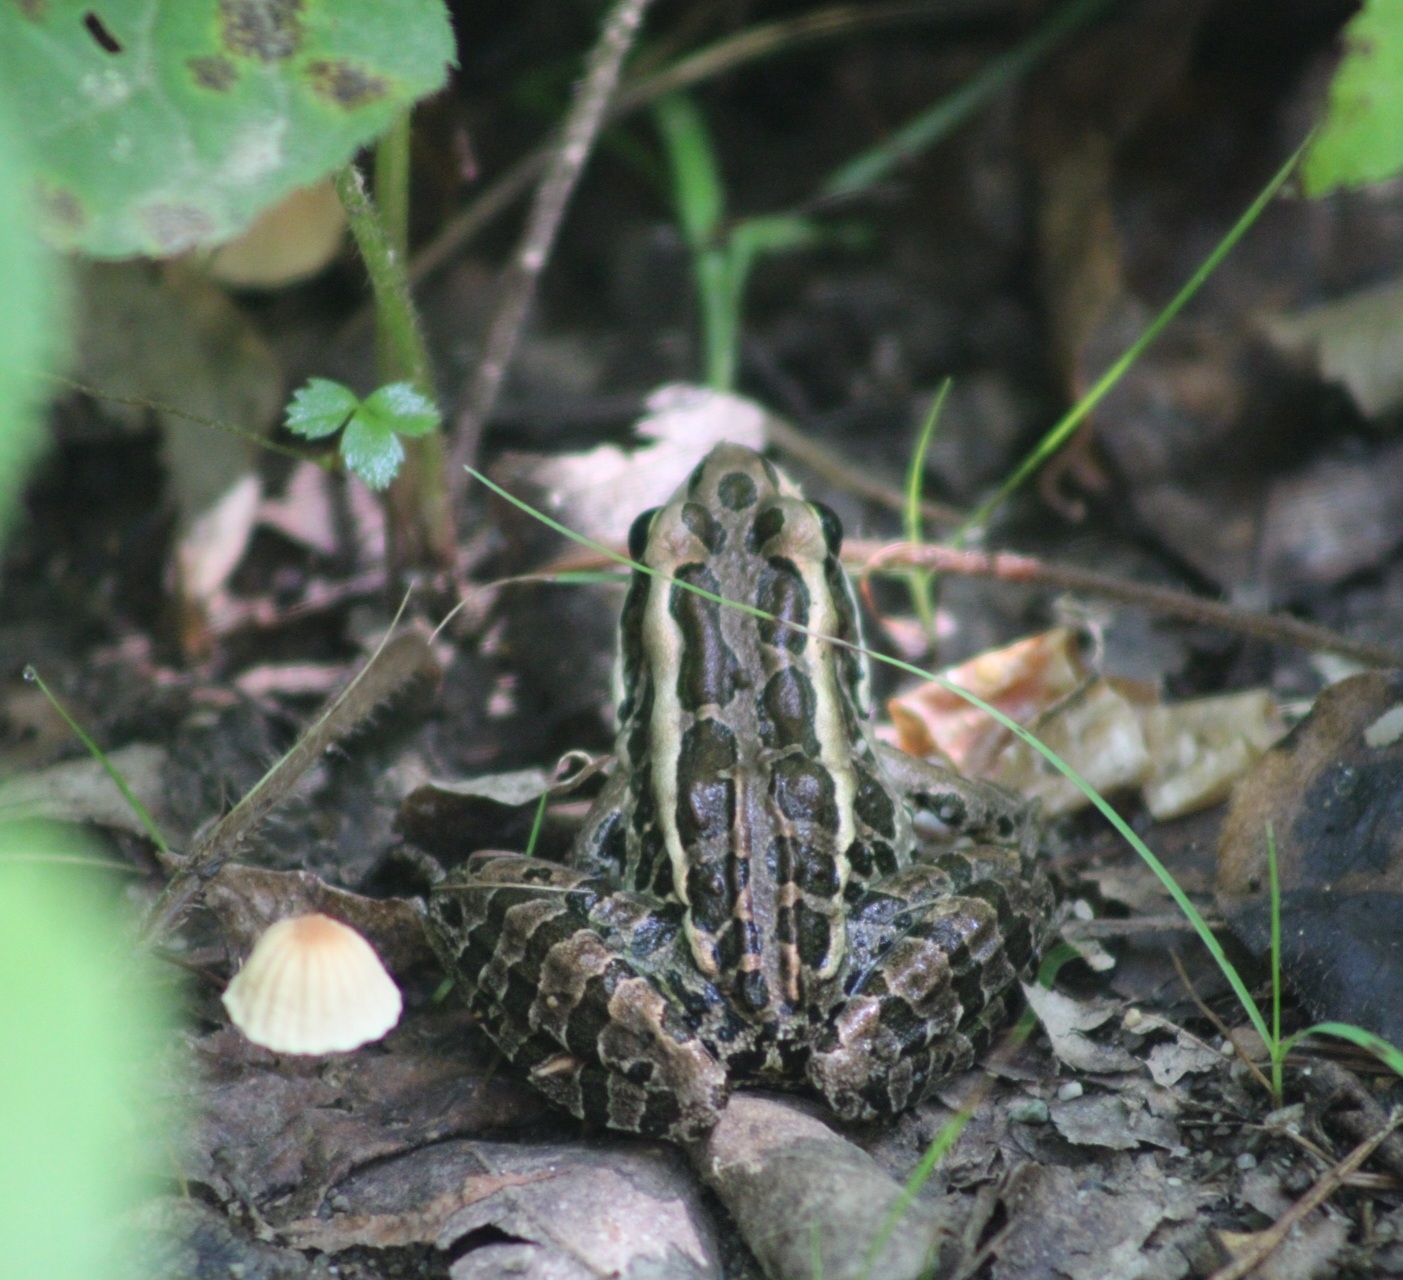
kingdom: Animalia
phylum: Chordata
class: Amphibia
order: Anura
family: Ranidae
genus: Lithobates
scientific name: Lithobates palustris
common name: Pickerel frog
